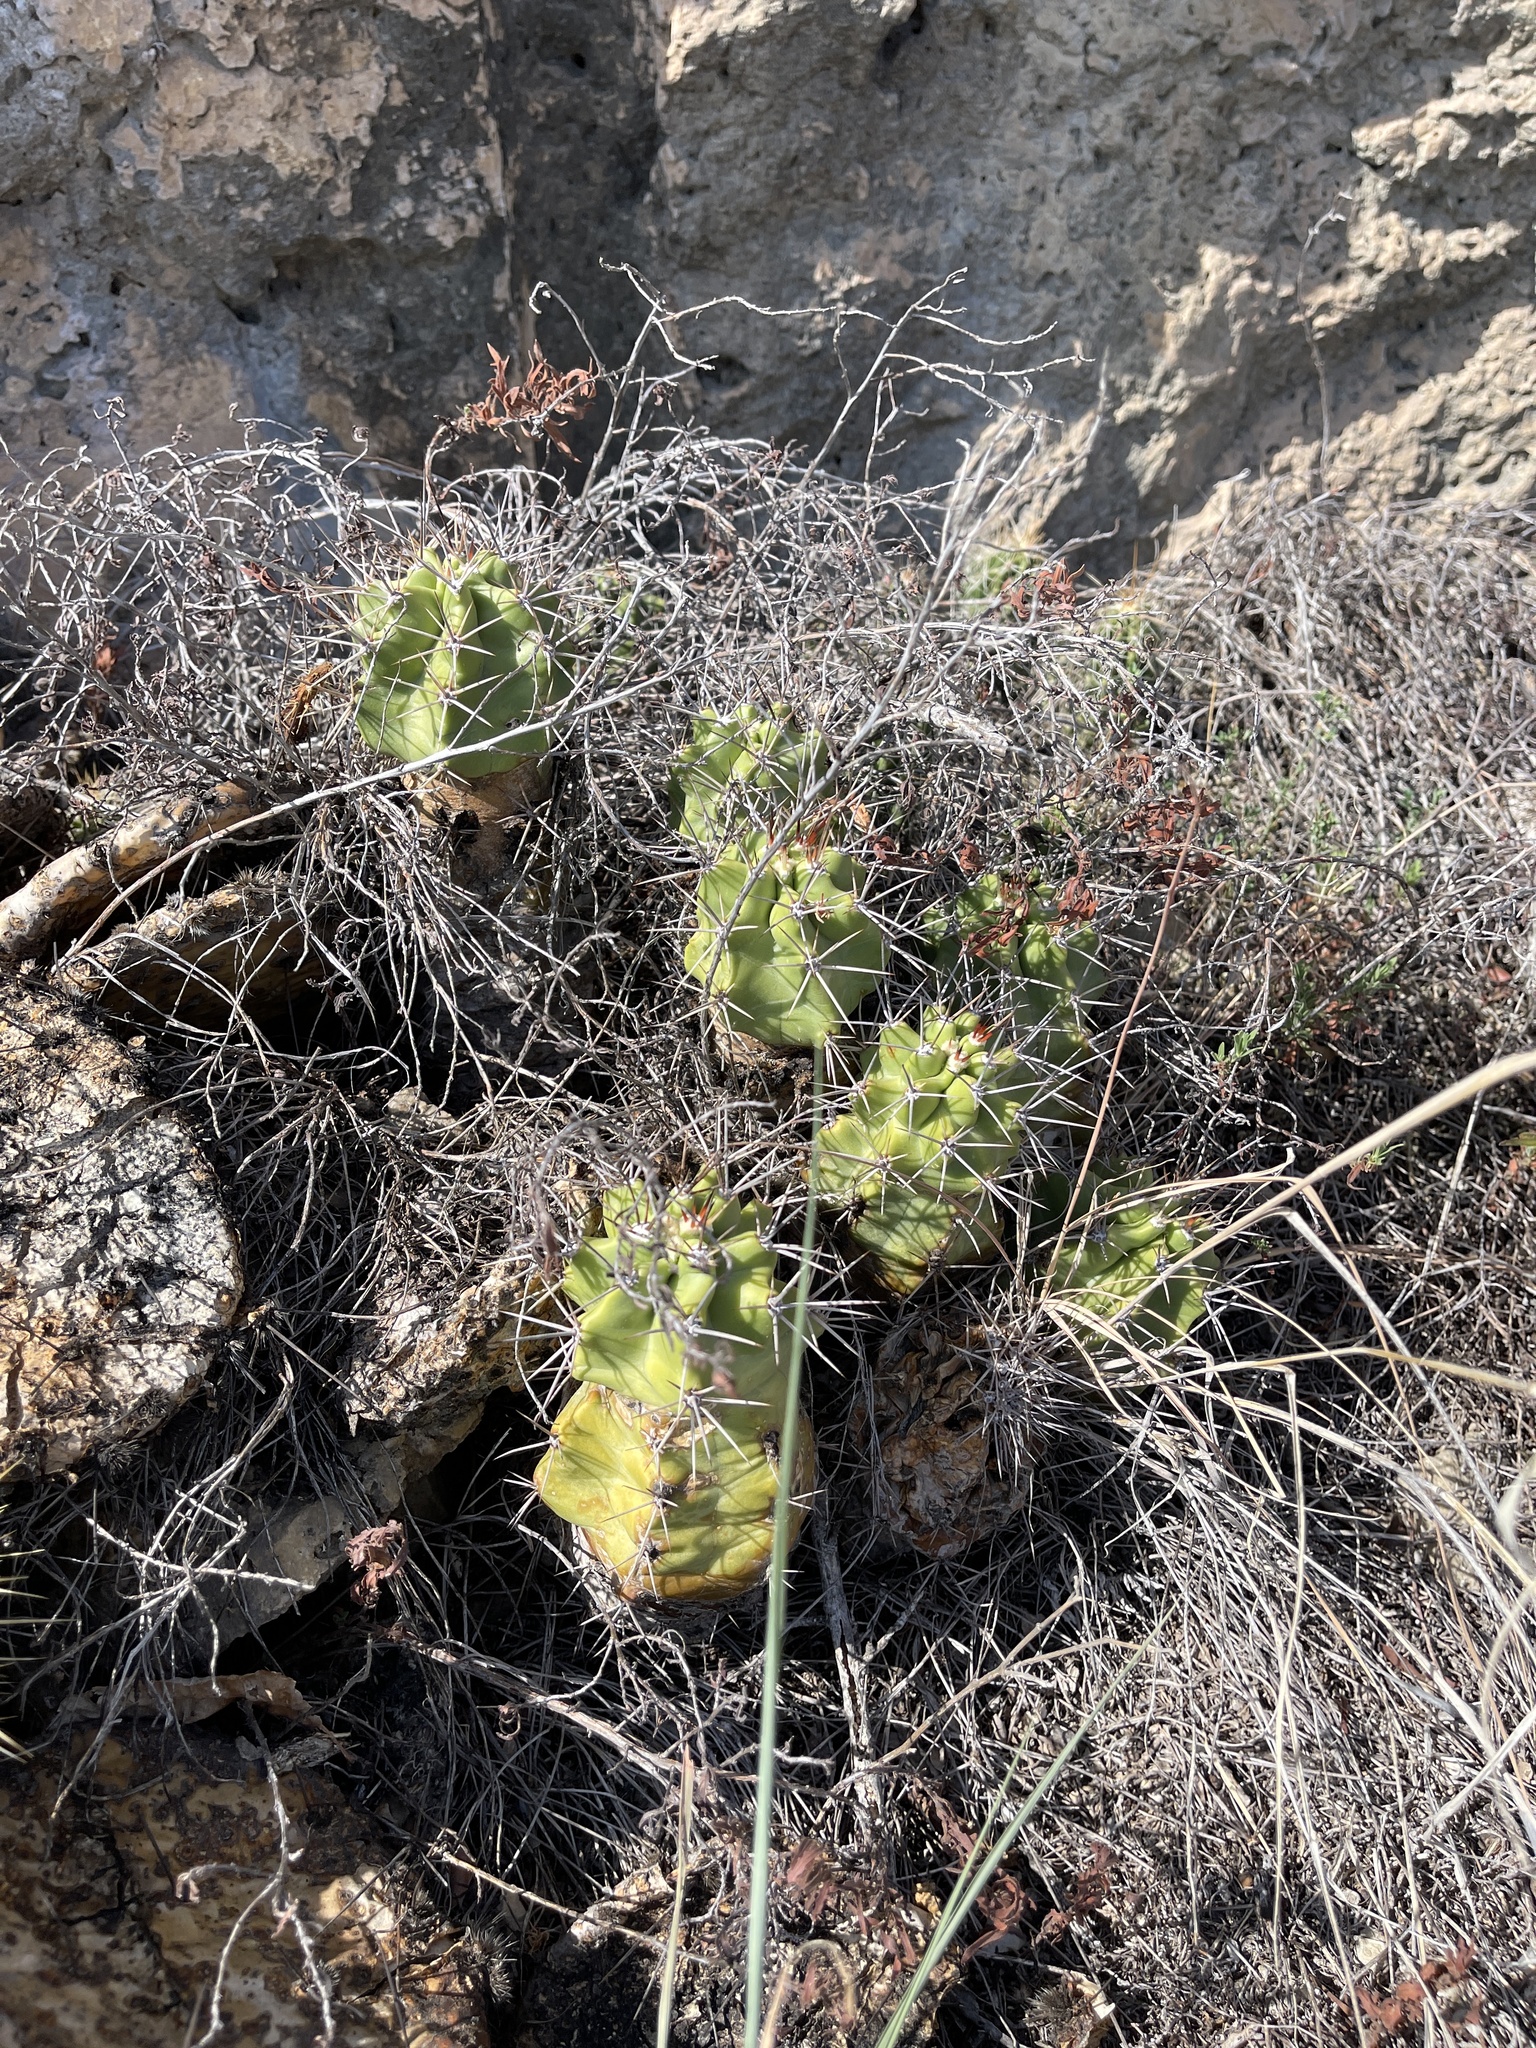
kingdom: Plantae
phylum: Tracheophyta
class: Magnoliopsida
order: Caryophyllales
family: Cactaceae
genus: Echinocereus
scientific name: Echinocereus coccineus
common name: Scarlet hedgehog cactus
